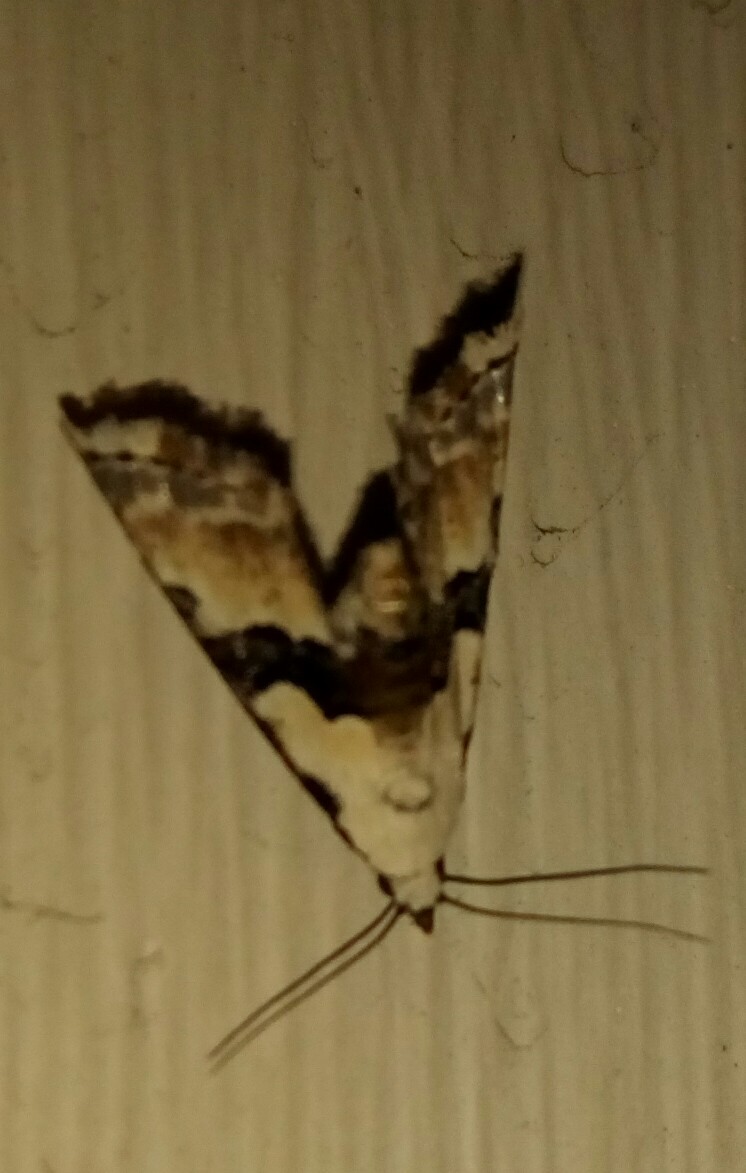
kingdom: Animalia
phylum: Arthropoda
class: Insecta
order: Lepidoptera
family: Noctuidae
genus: Nigetia
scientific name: Nigetia formosalis
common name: Thin-winged owlet
